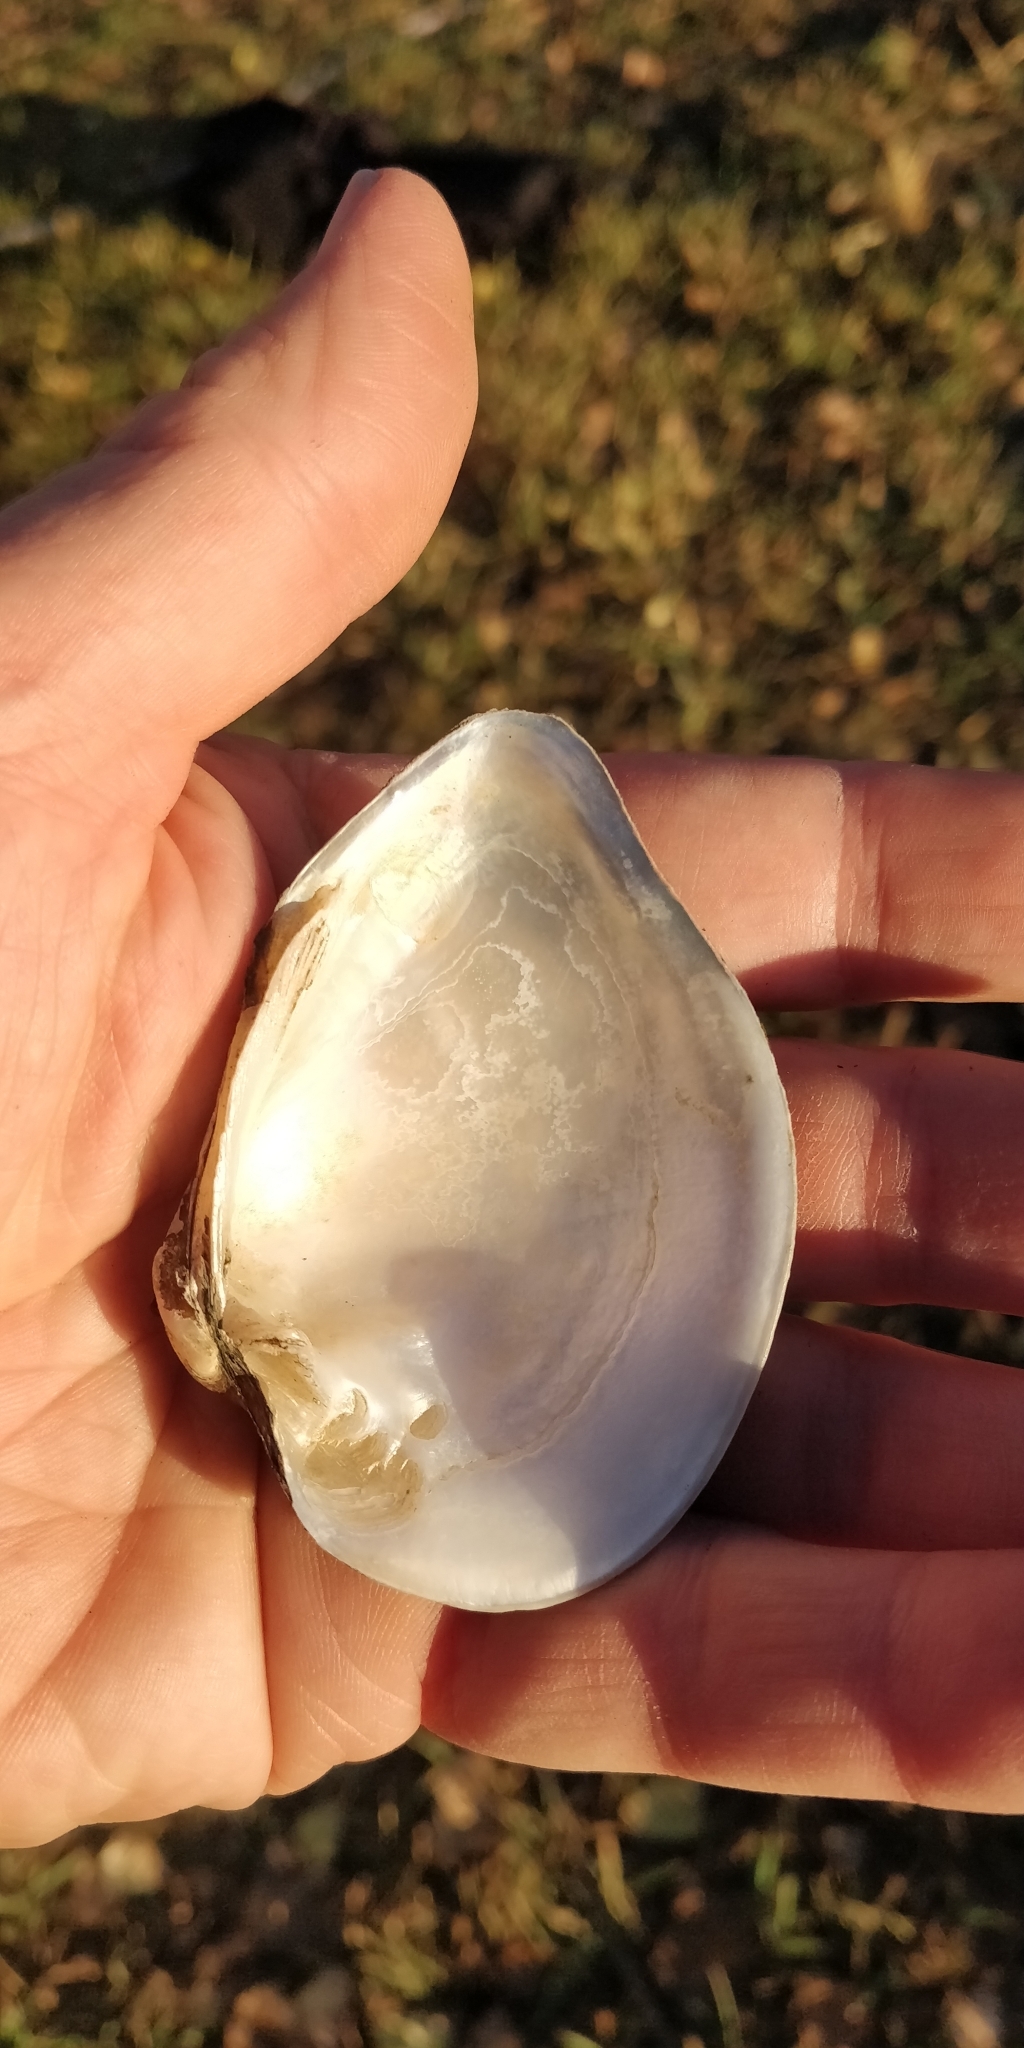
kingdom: Animalia
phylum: Mollusca
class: Bivalvia
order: Unionida
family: Unionidae
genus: Truncilla
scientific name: Truncilla truncata
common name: Deertoe
